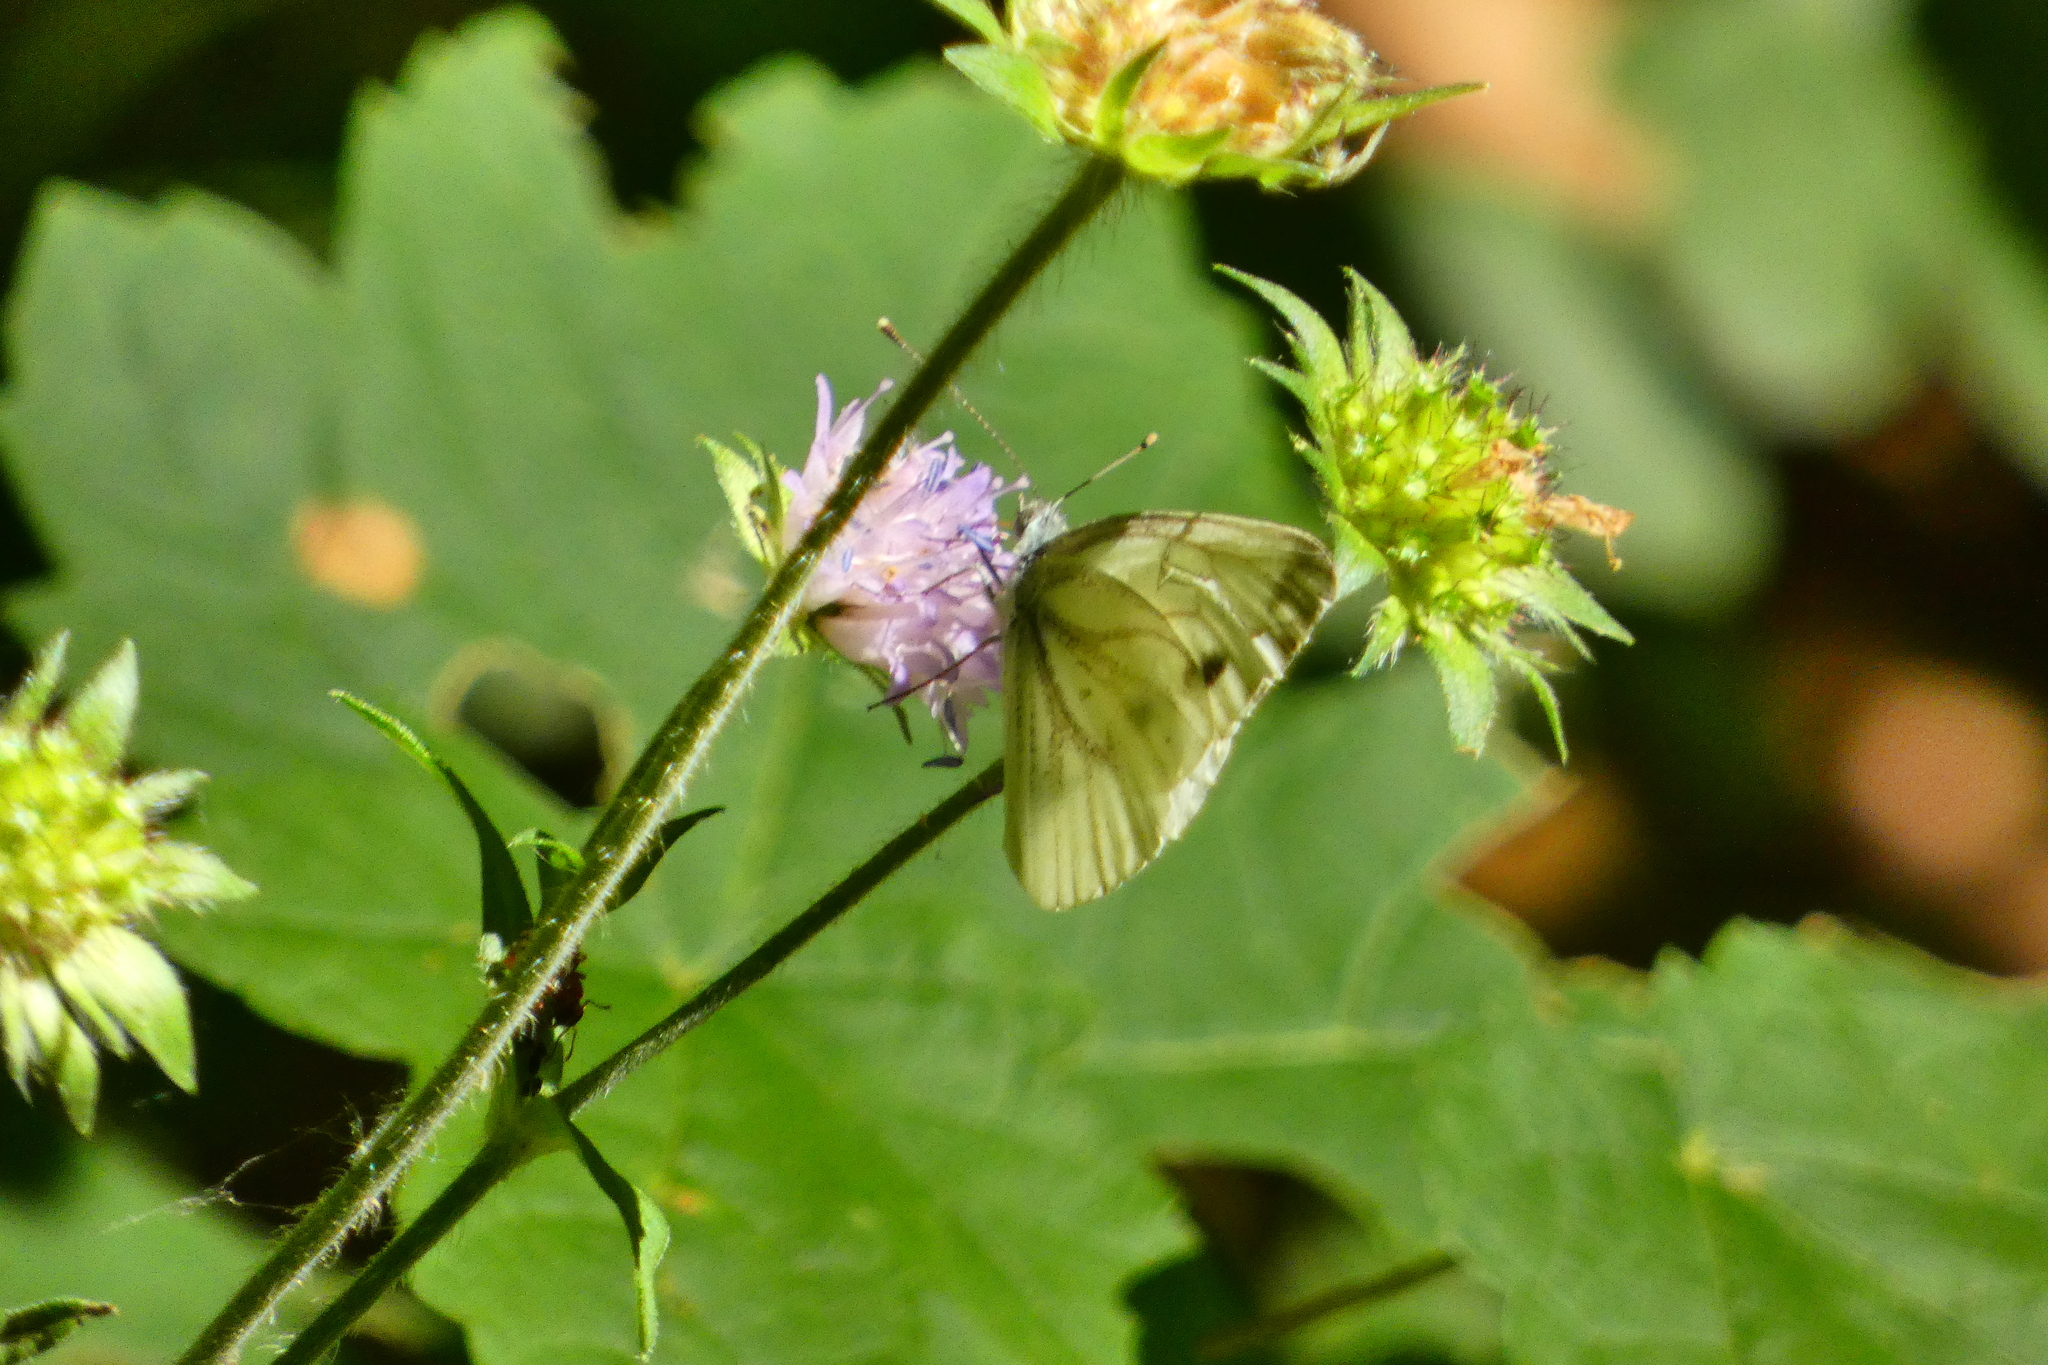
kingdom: Animalia
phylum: Arthropoda
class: Insecta
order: Lepidoptera
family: Pieridae
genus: Pieris
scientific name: Pieris napi
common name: Green-veined white
